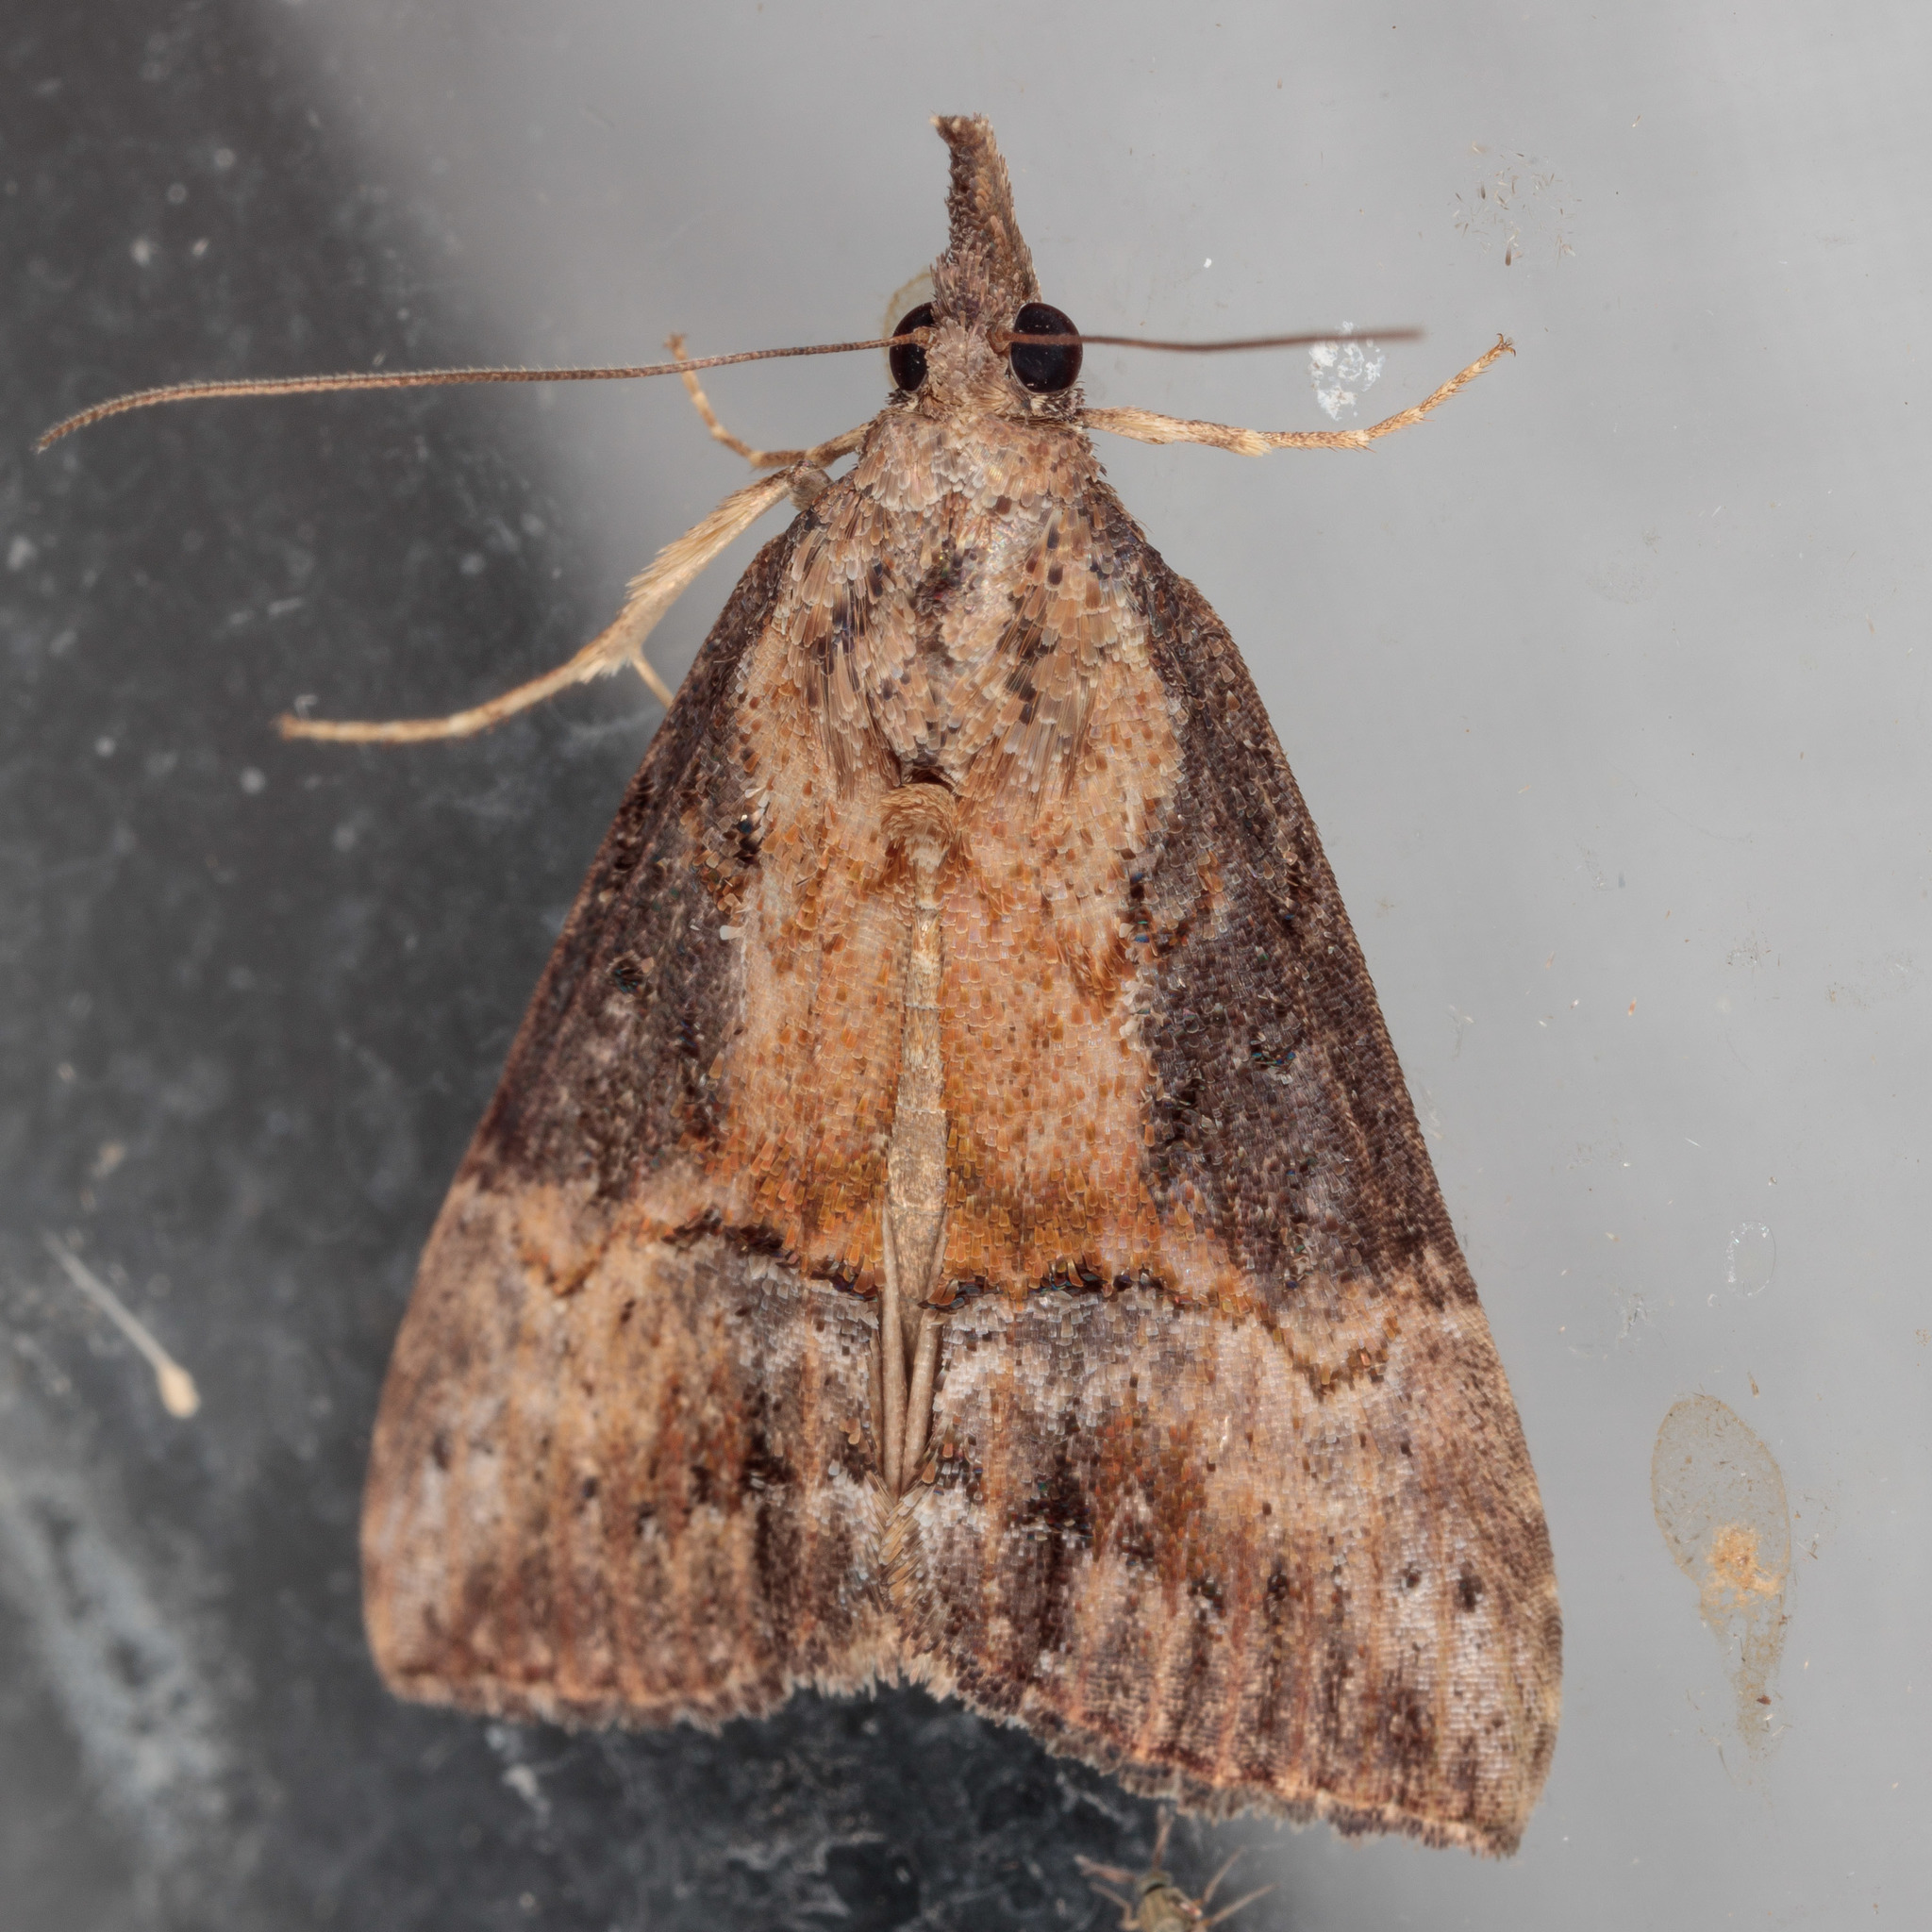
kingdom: Animalia
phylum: Arthropoda
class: Insecta
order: Lepidoptera
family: Erebidae
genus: Hypena
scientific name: Hypena scabra
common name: Green cloverworm
